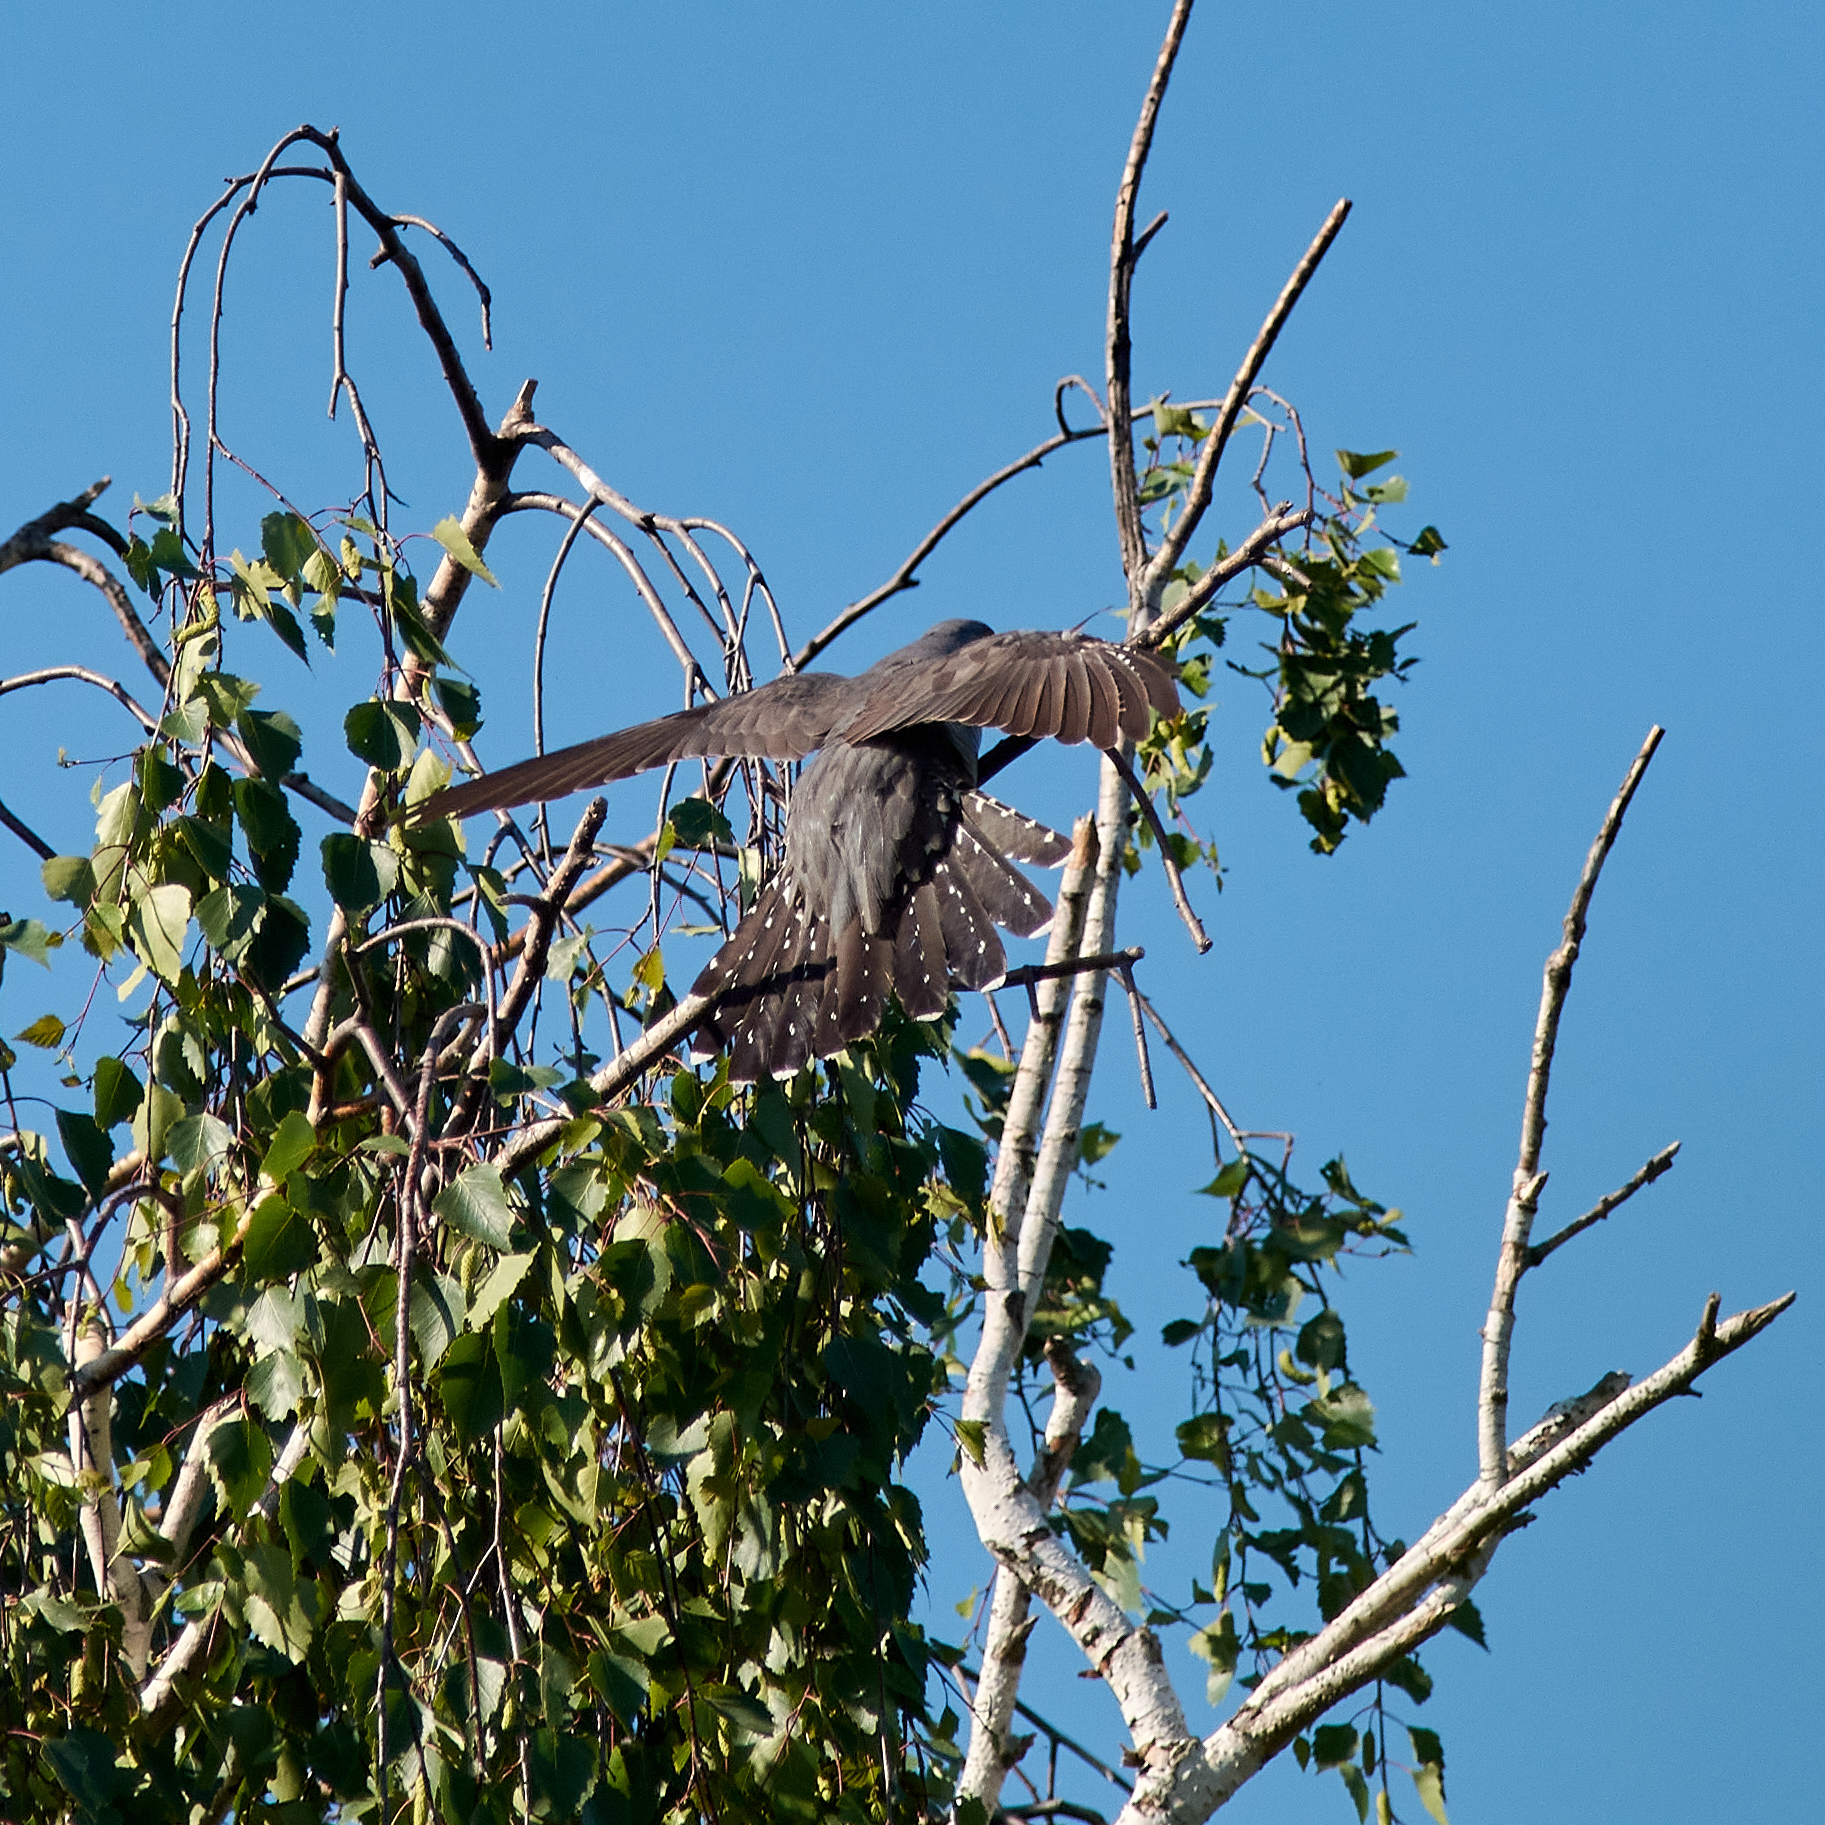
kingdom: Animalia
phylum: Chordata
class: Aves
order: Cuculiformes
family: Cuculidae
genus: Cuculus
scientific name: Cuculus canorus
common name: Common cuckoo
